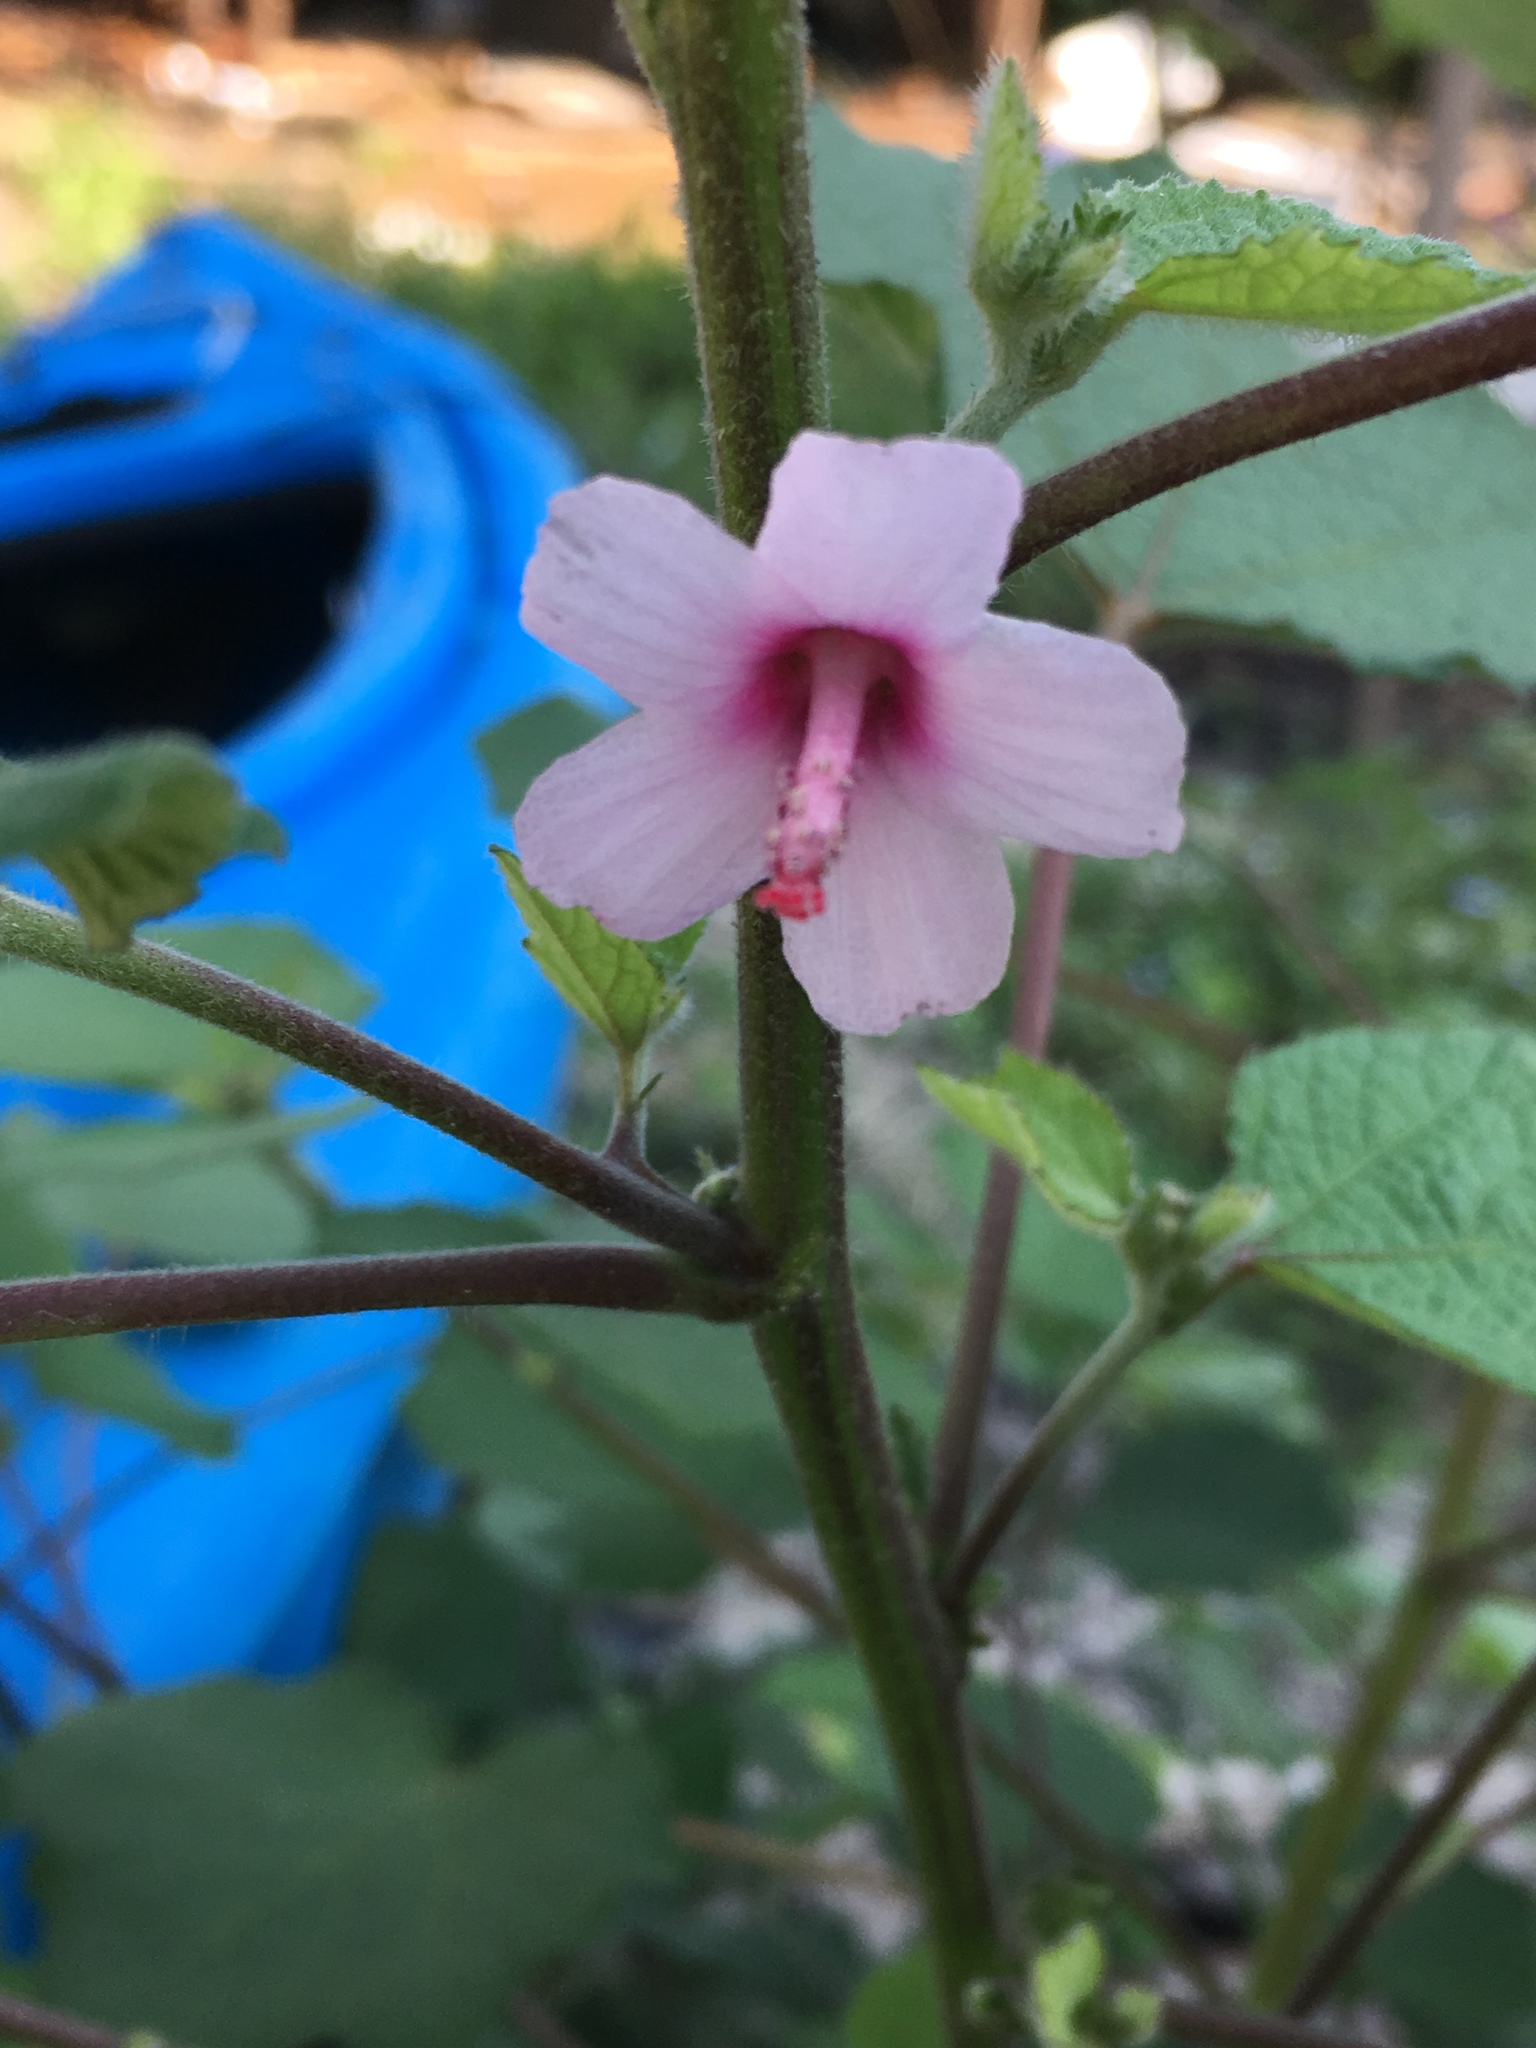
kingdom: Plantae
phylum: Tracheophyta
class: Magnoliopsida
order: Malvales
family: Malvaceae
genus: Urena
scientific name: Urena lobata
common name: Caesarweed
